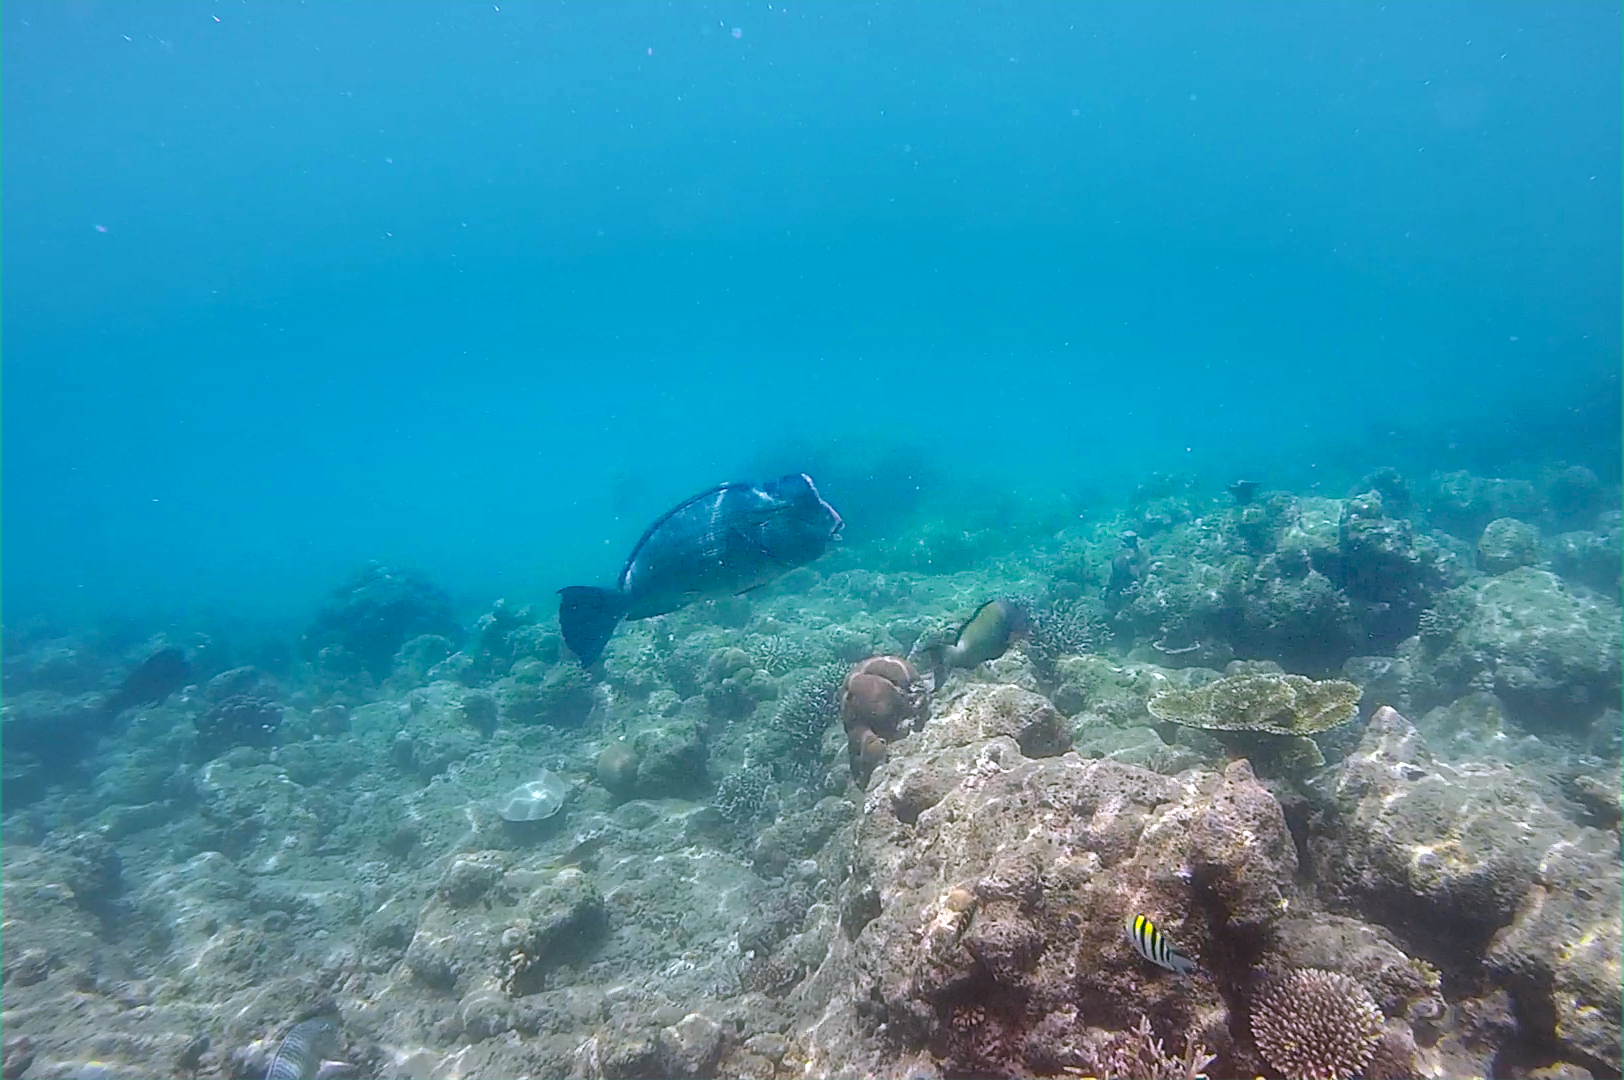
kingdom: Animalia
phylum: Chordata
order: Perciformes
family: Scaridae
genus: Bolbometopon
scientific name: Bolbometopon muricatum
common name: Humphead parrotfish
